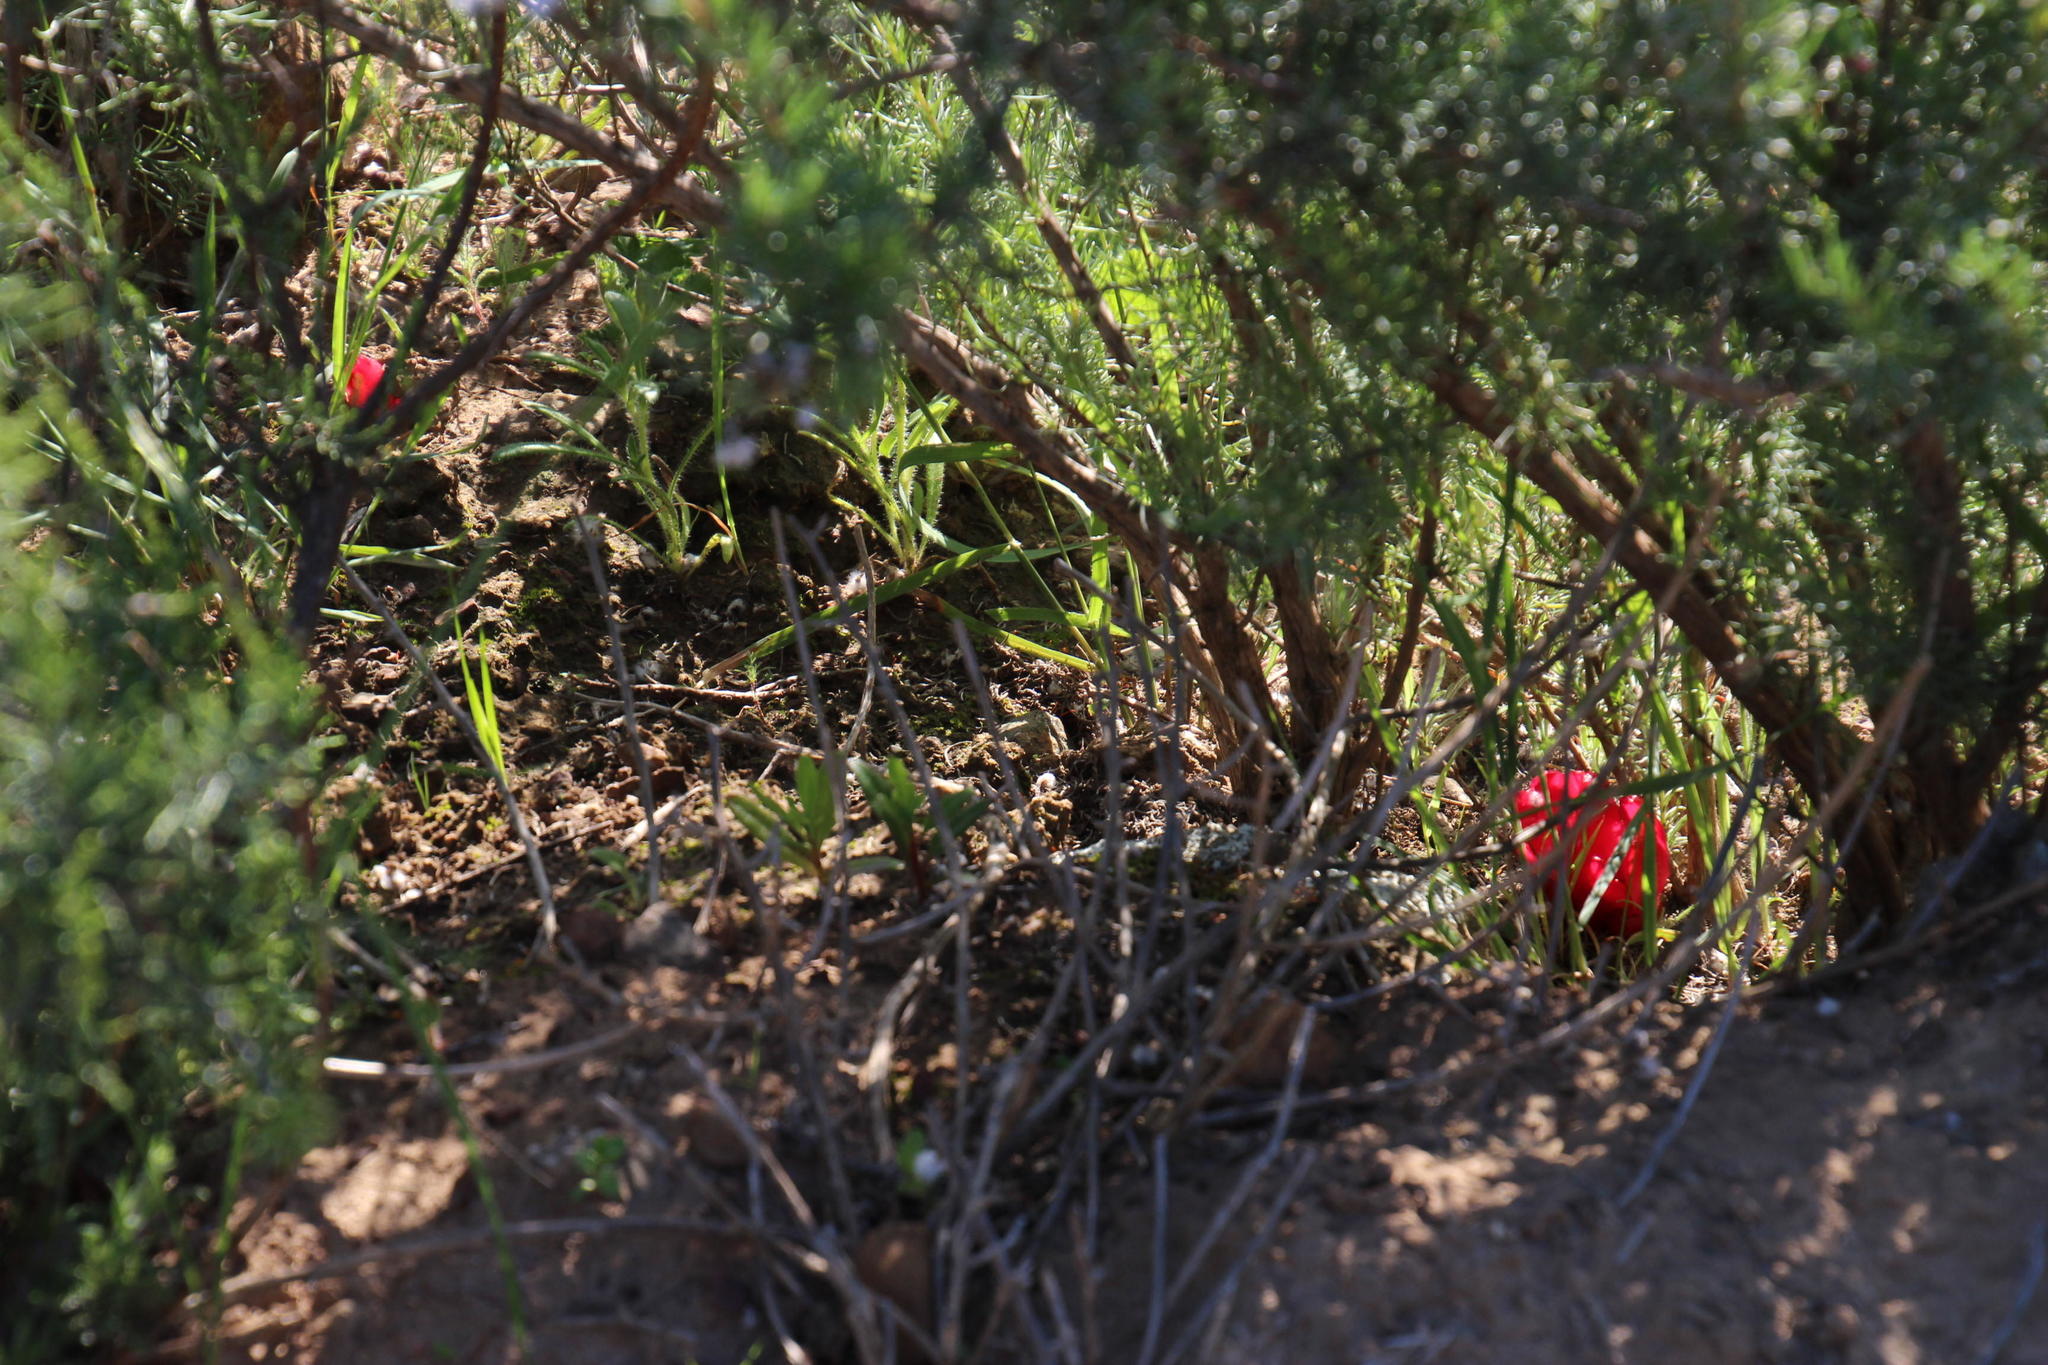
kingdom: Plantae
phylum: Tracheophyta
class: Magnoliopsida
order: Malvales
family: Cytinaceae
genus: Cytinus
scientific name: Cytinus sanguineus
